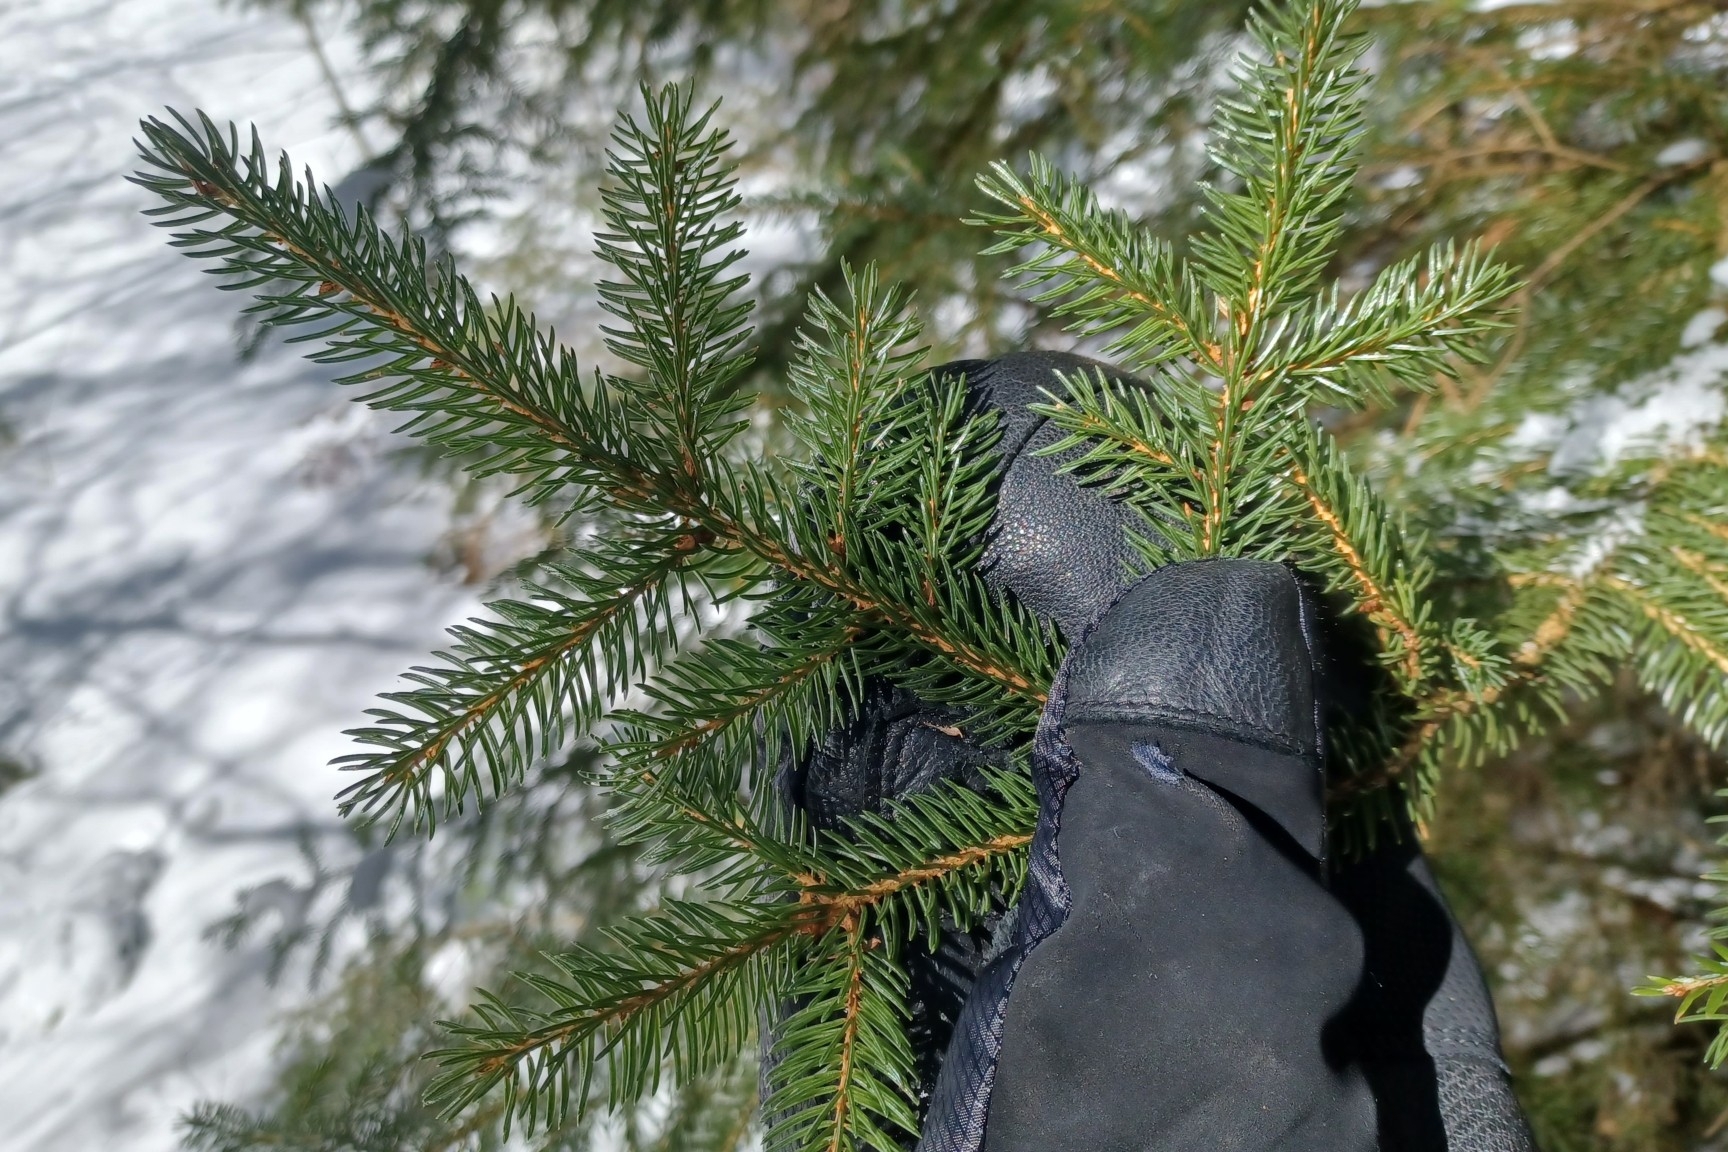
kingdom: Plantae
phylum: Tracheophyta
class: Pinopsida
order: Pinales
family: Pinaceae
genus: Picea
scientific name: Picea rubens
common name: Red spruce
